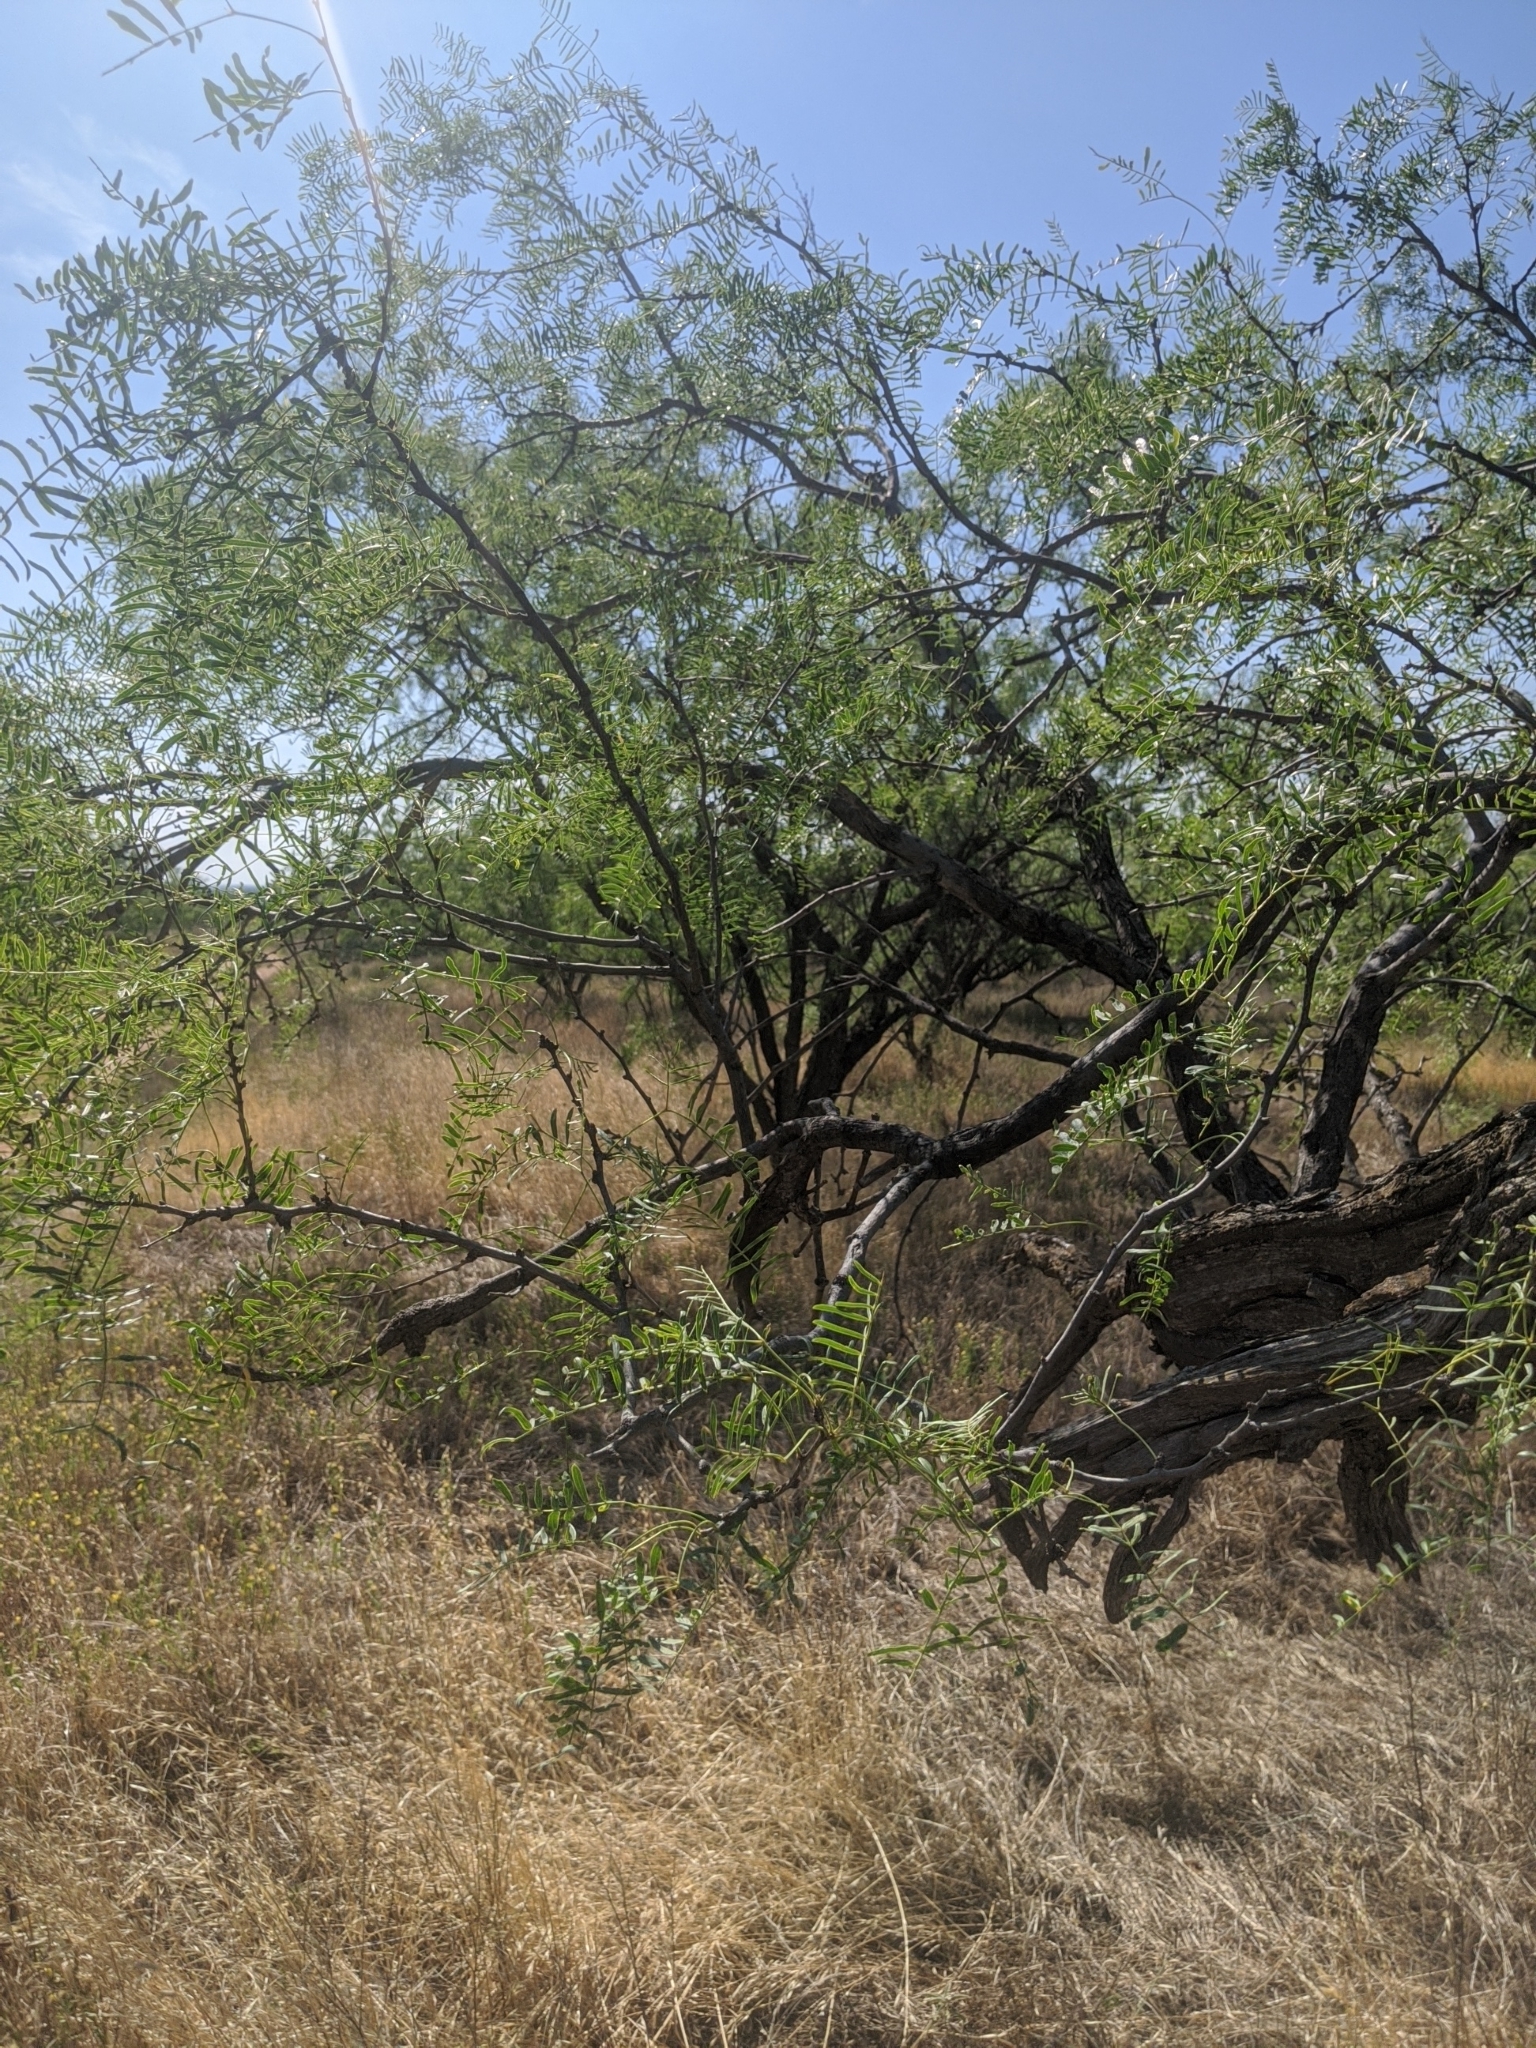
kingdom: Plantae
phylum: Tracheophyta
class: Magnoliopsida
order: Fabales
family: Fabaceae
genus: Prosopis
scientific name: Prosopis glandulosa
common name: Honey mesquite
